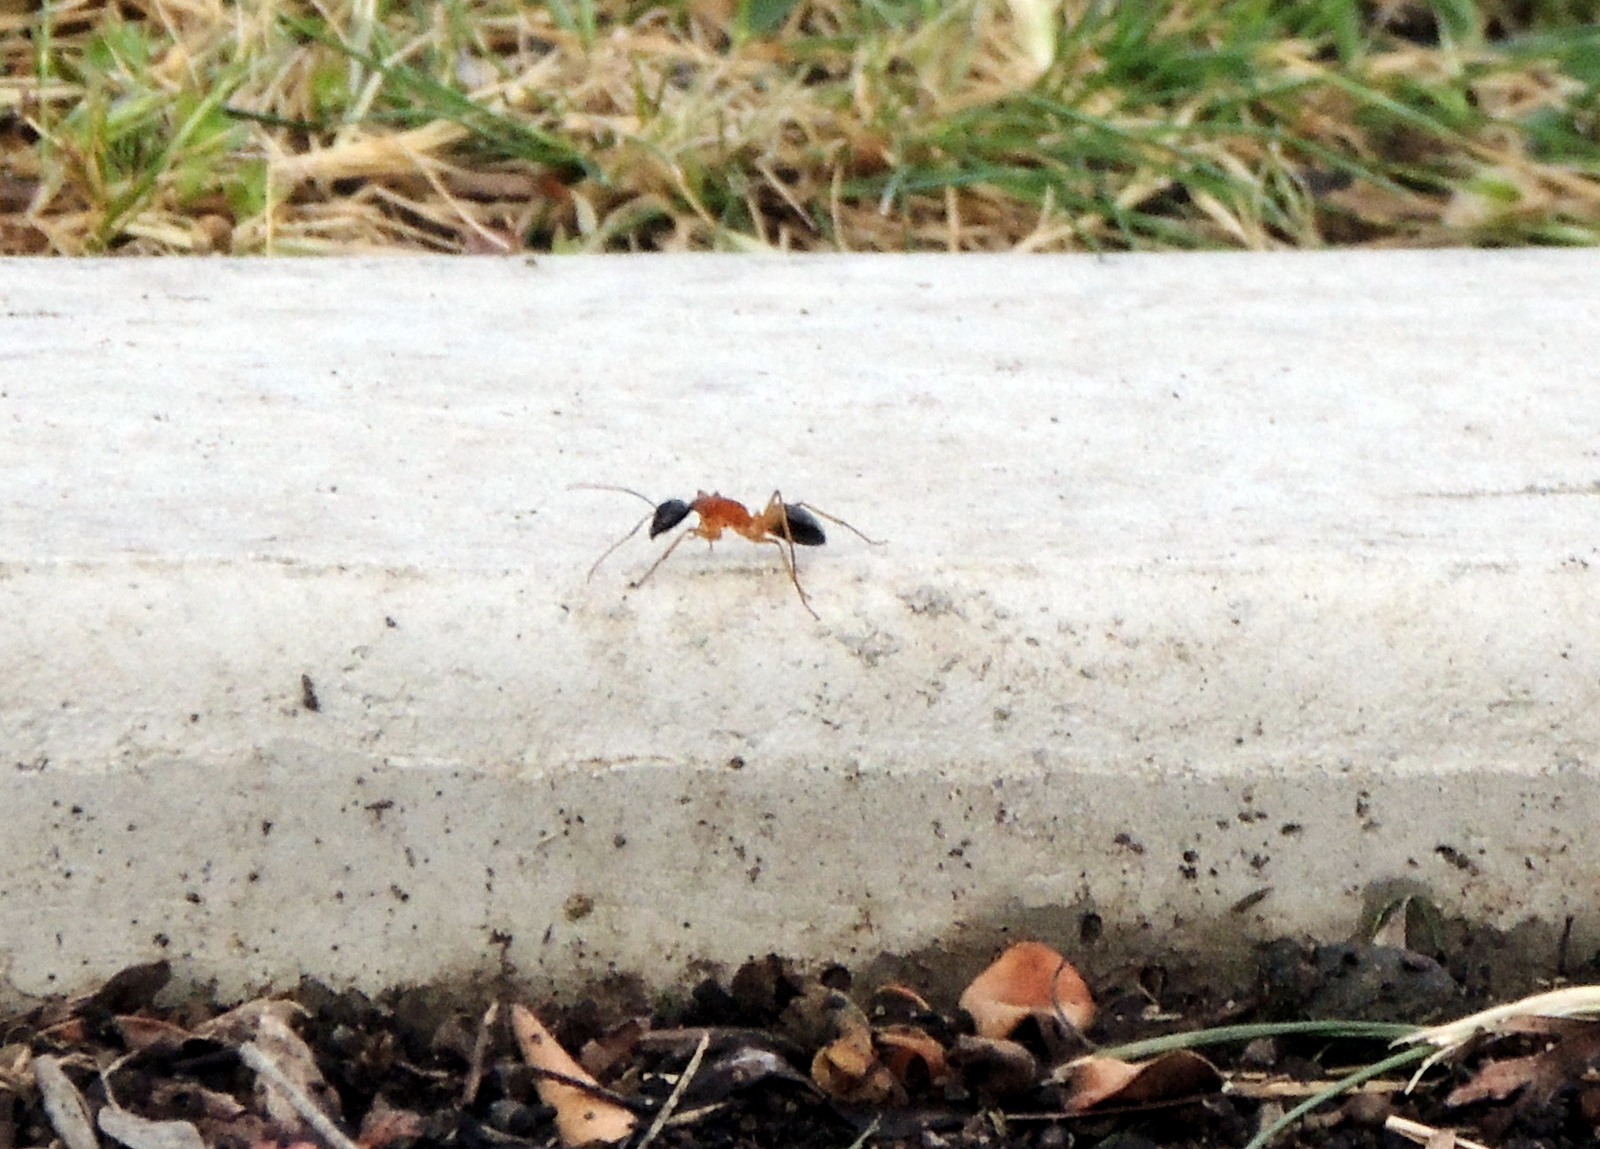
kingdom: Animalia
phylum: Arthropoda
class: Insecta
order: Hymenoptera
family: Formicidae
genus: Camponotus
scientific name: Camponotus consobrinus
